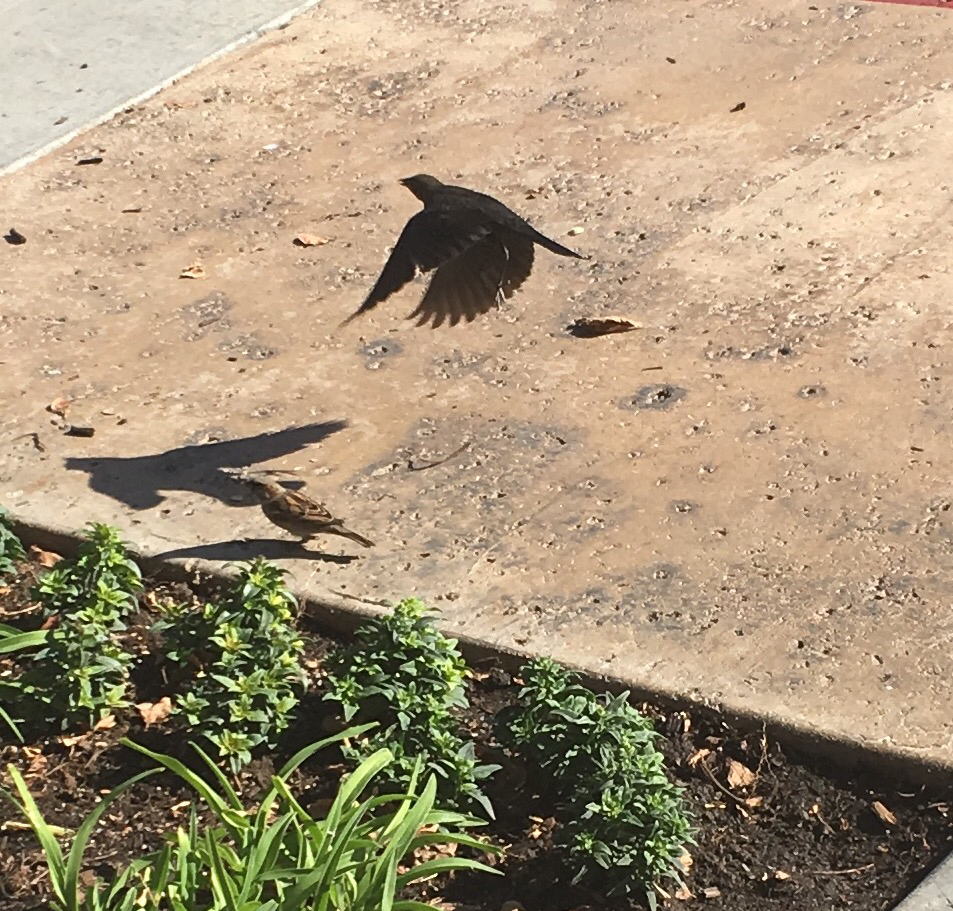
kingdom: Animalia
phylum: Chordata
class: Aves
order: Passeriformes
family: Icteridae
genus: Euphagus
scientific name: Euphagus cyanocephalus
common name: Brewer's blackbird
